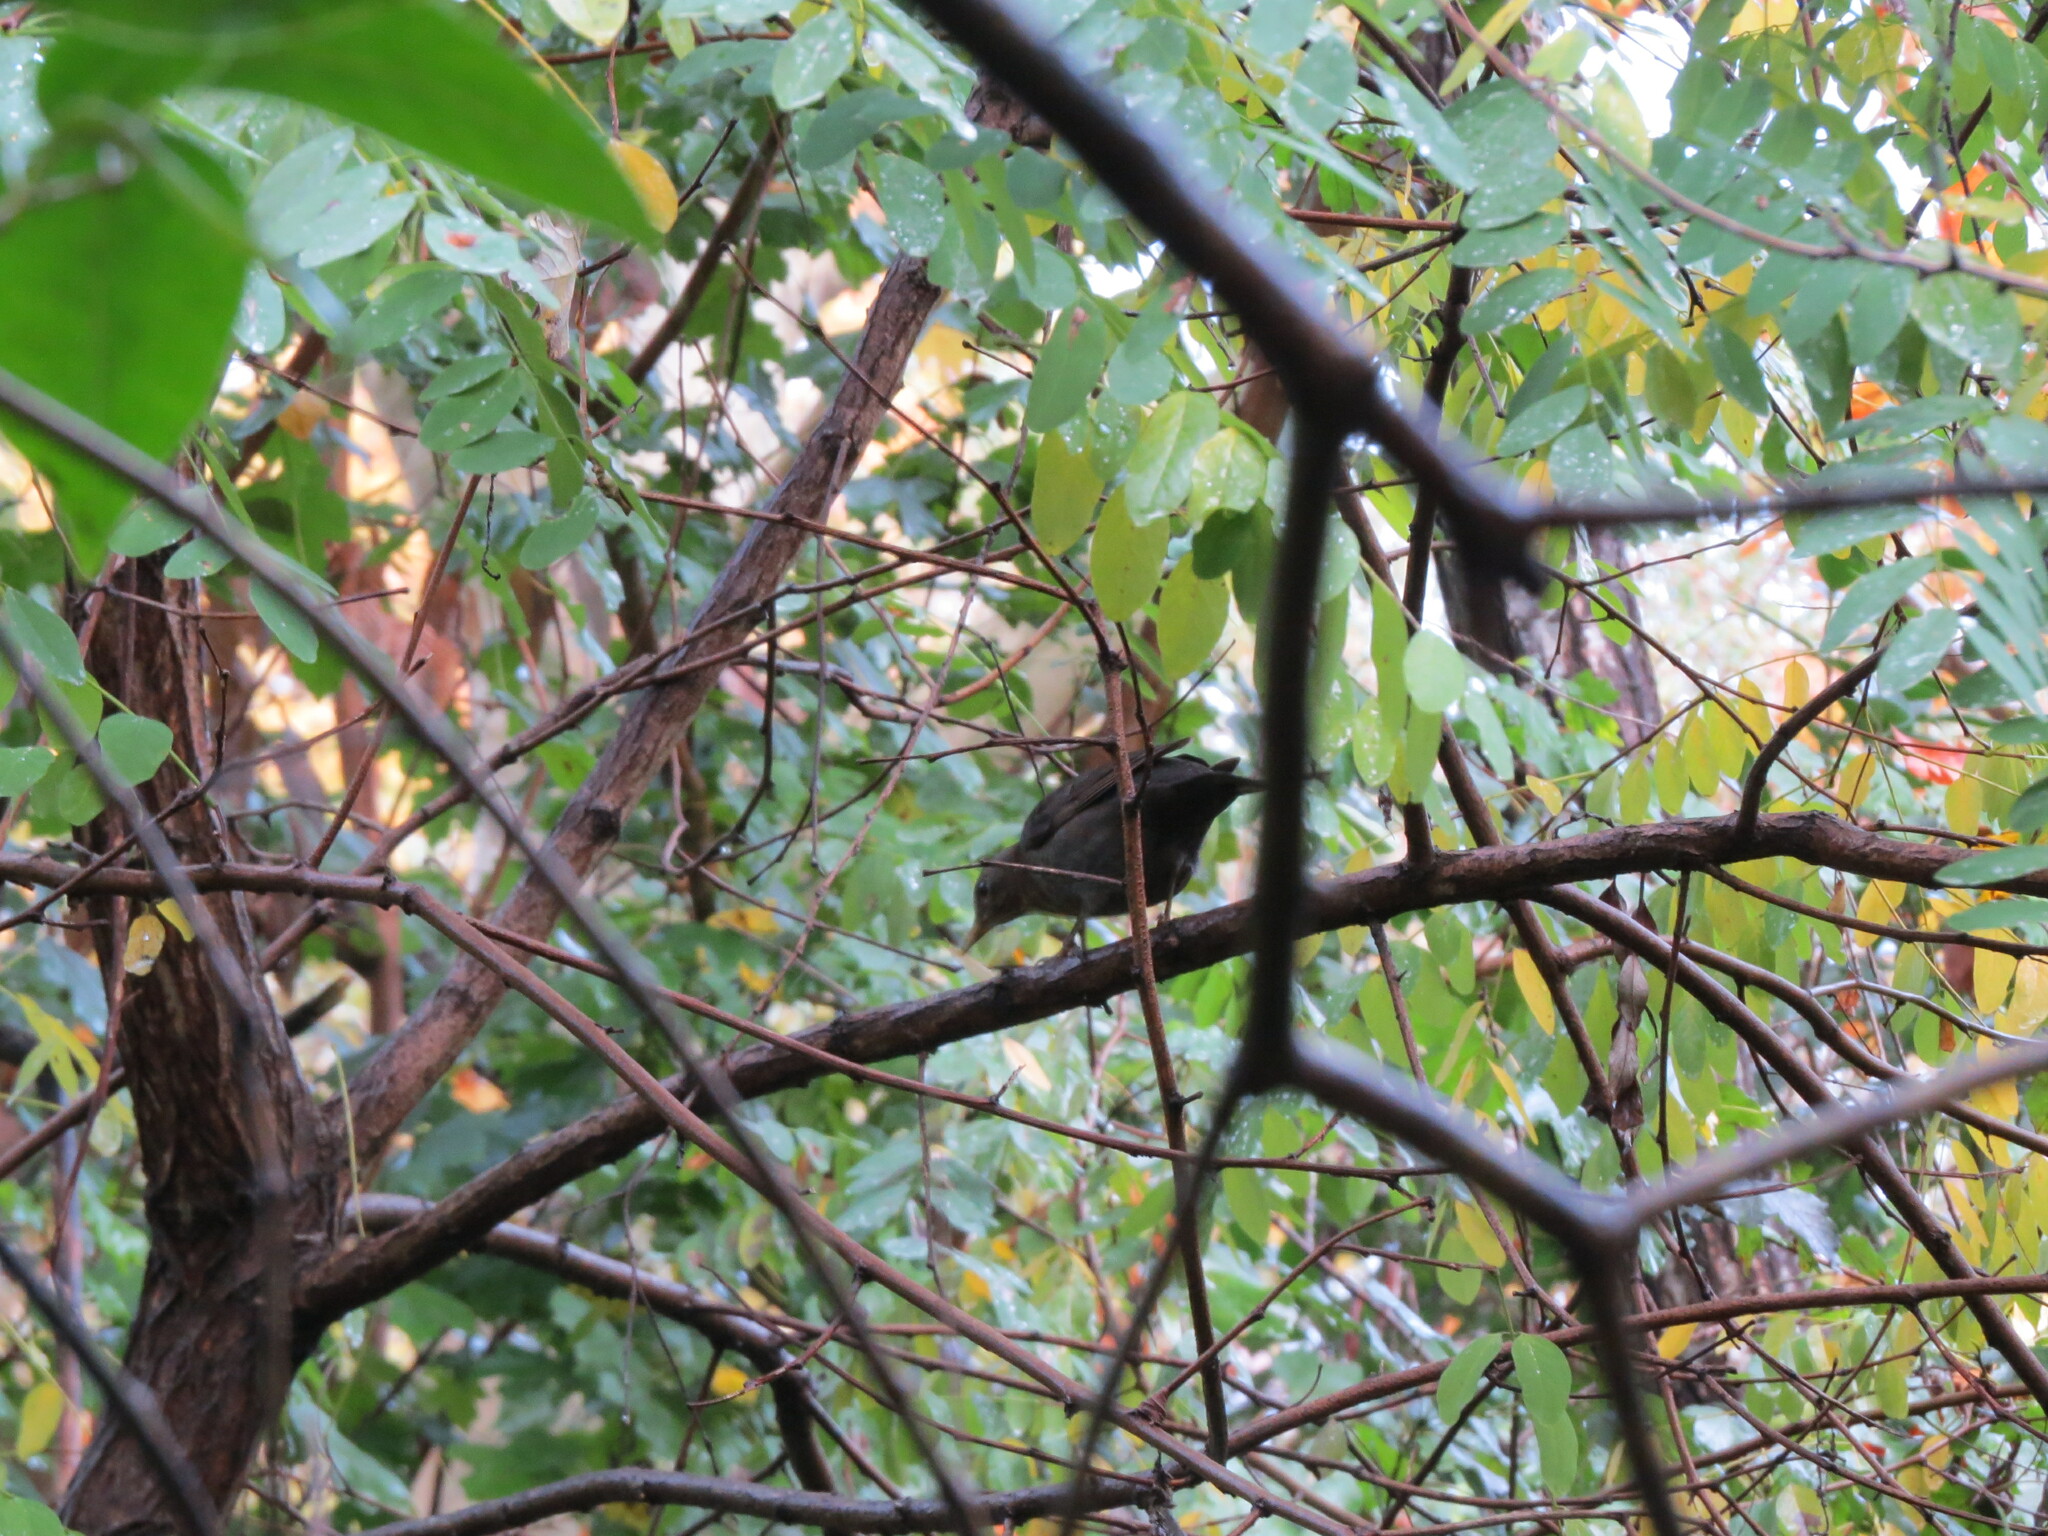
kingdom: Animalia
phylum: Chordata
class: Aves
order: Passeriformes
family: Turdidae
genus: Turdus
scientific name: Turdus merula
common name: Common blackbird
